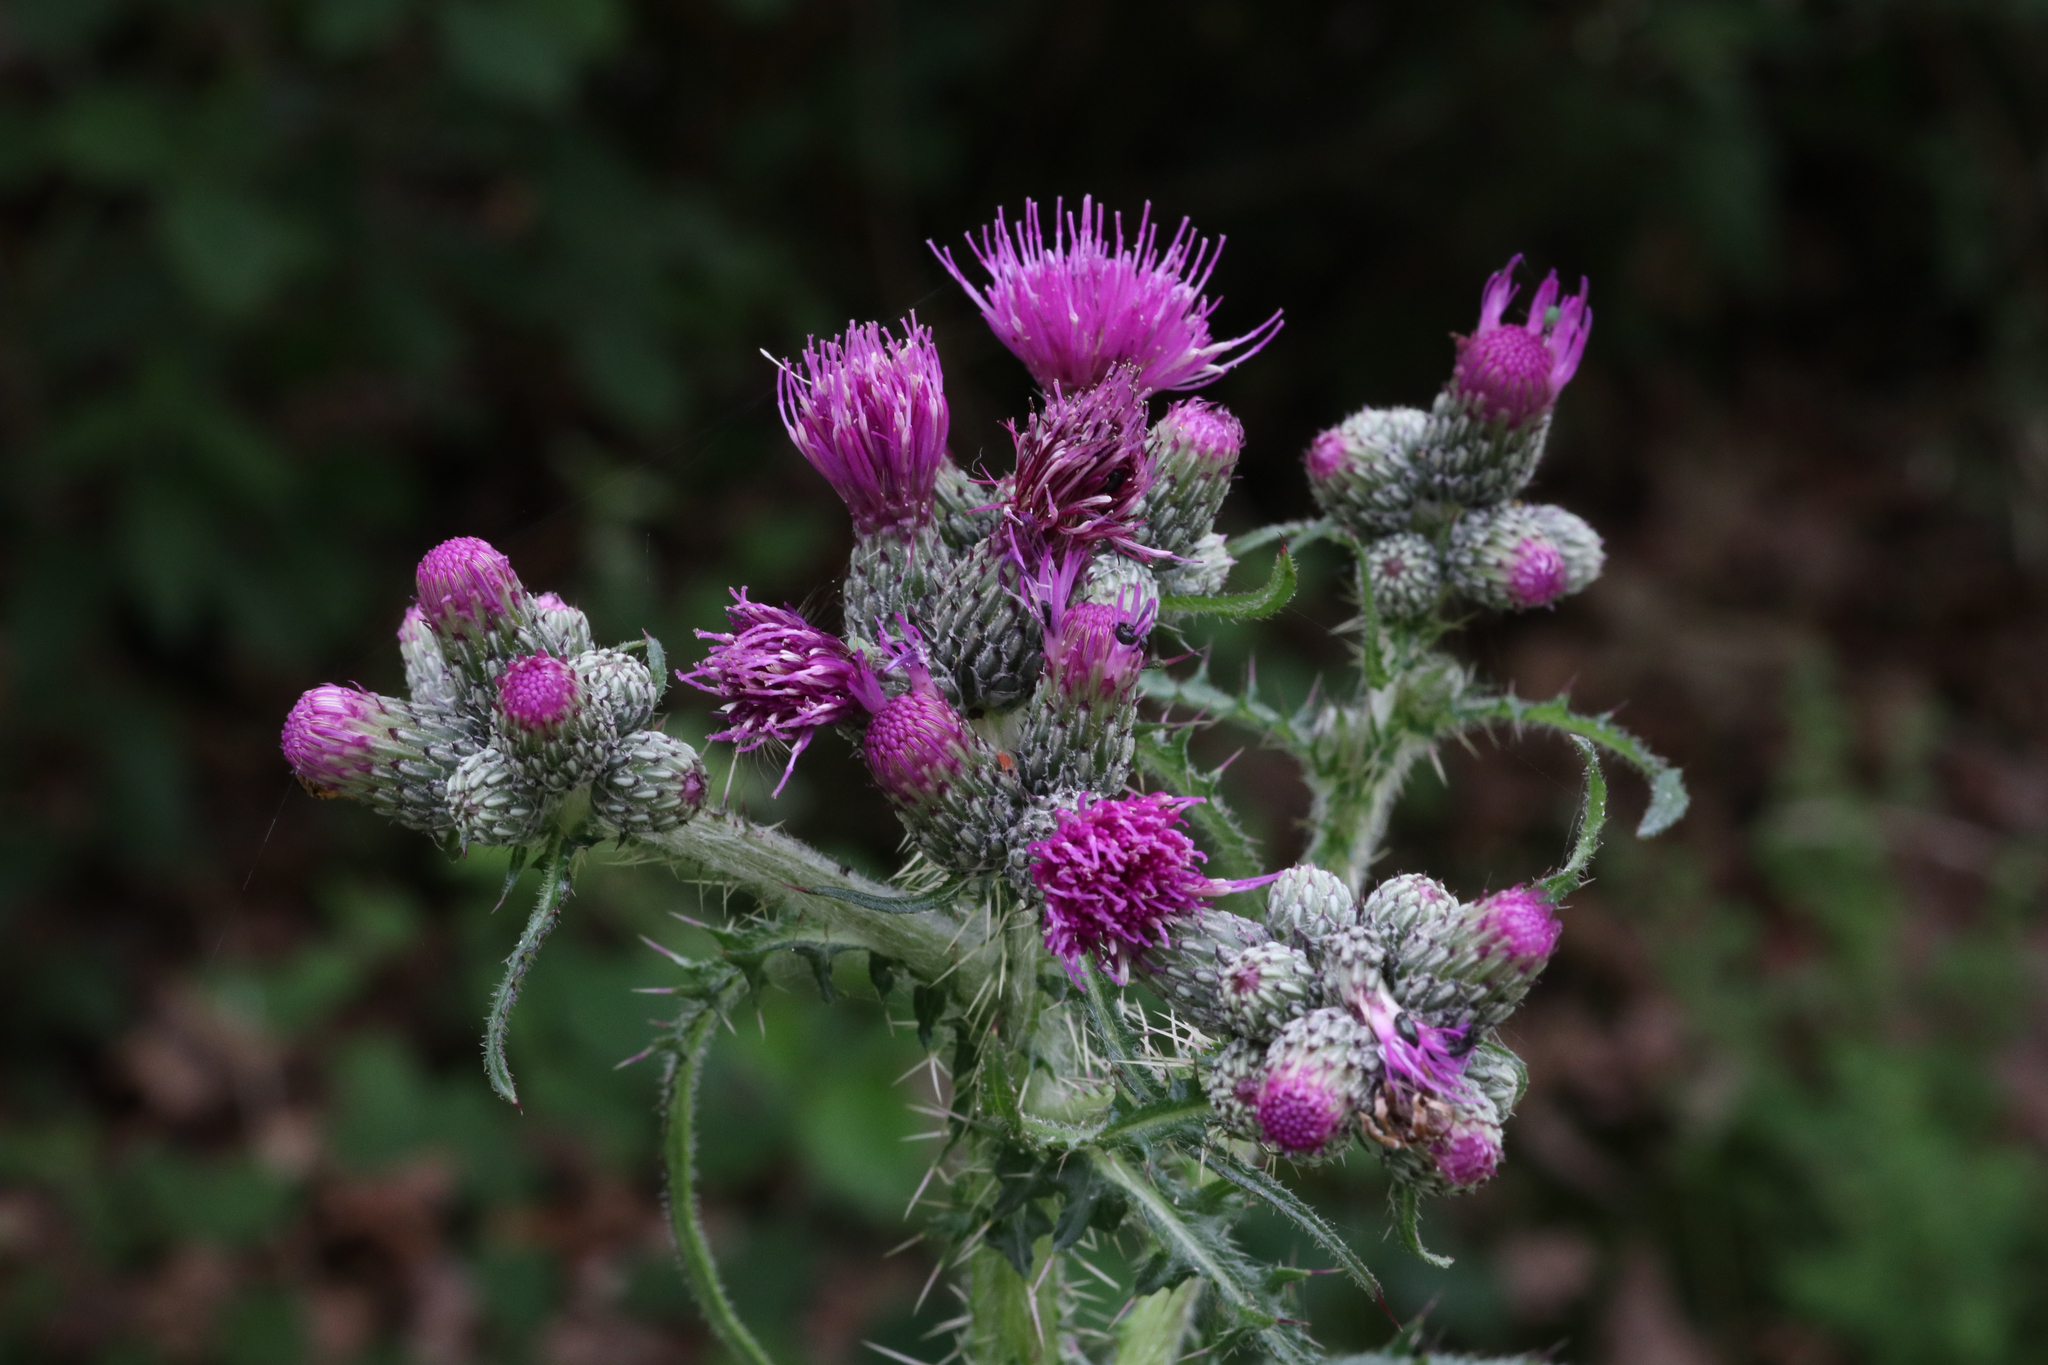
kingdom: Plantae
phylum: Tracheophyta
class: Magnoliopsida
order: Asterales
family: Asteraceae
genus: Cirsium
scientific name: Cirsium palustre
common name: Marsh thistle
